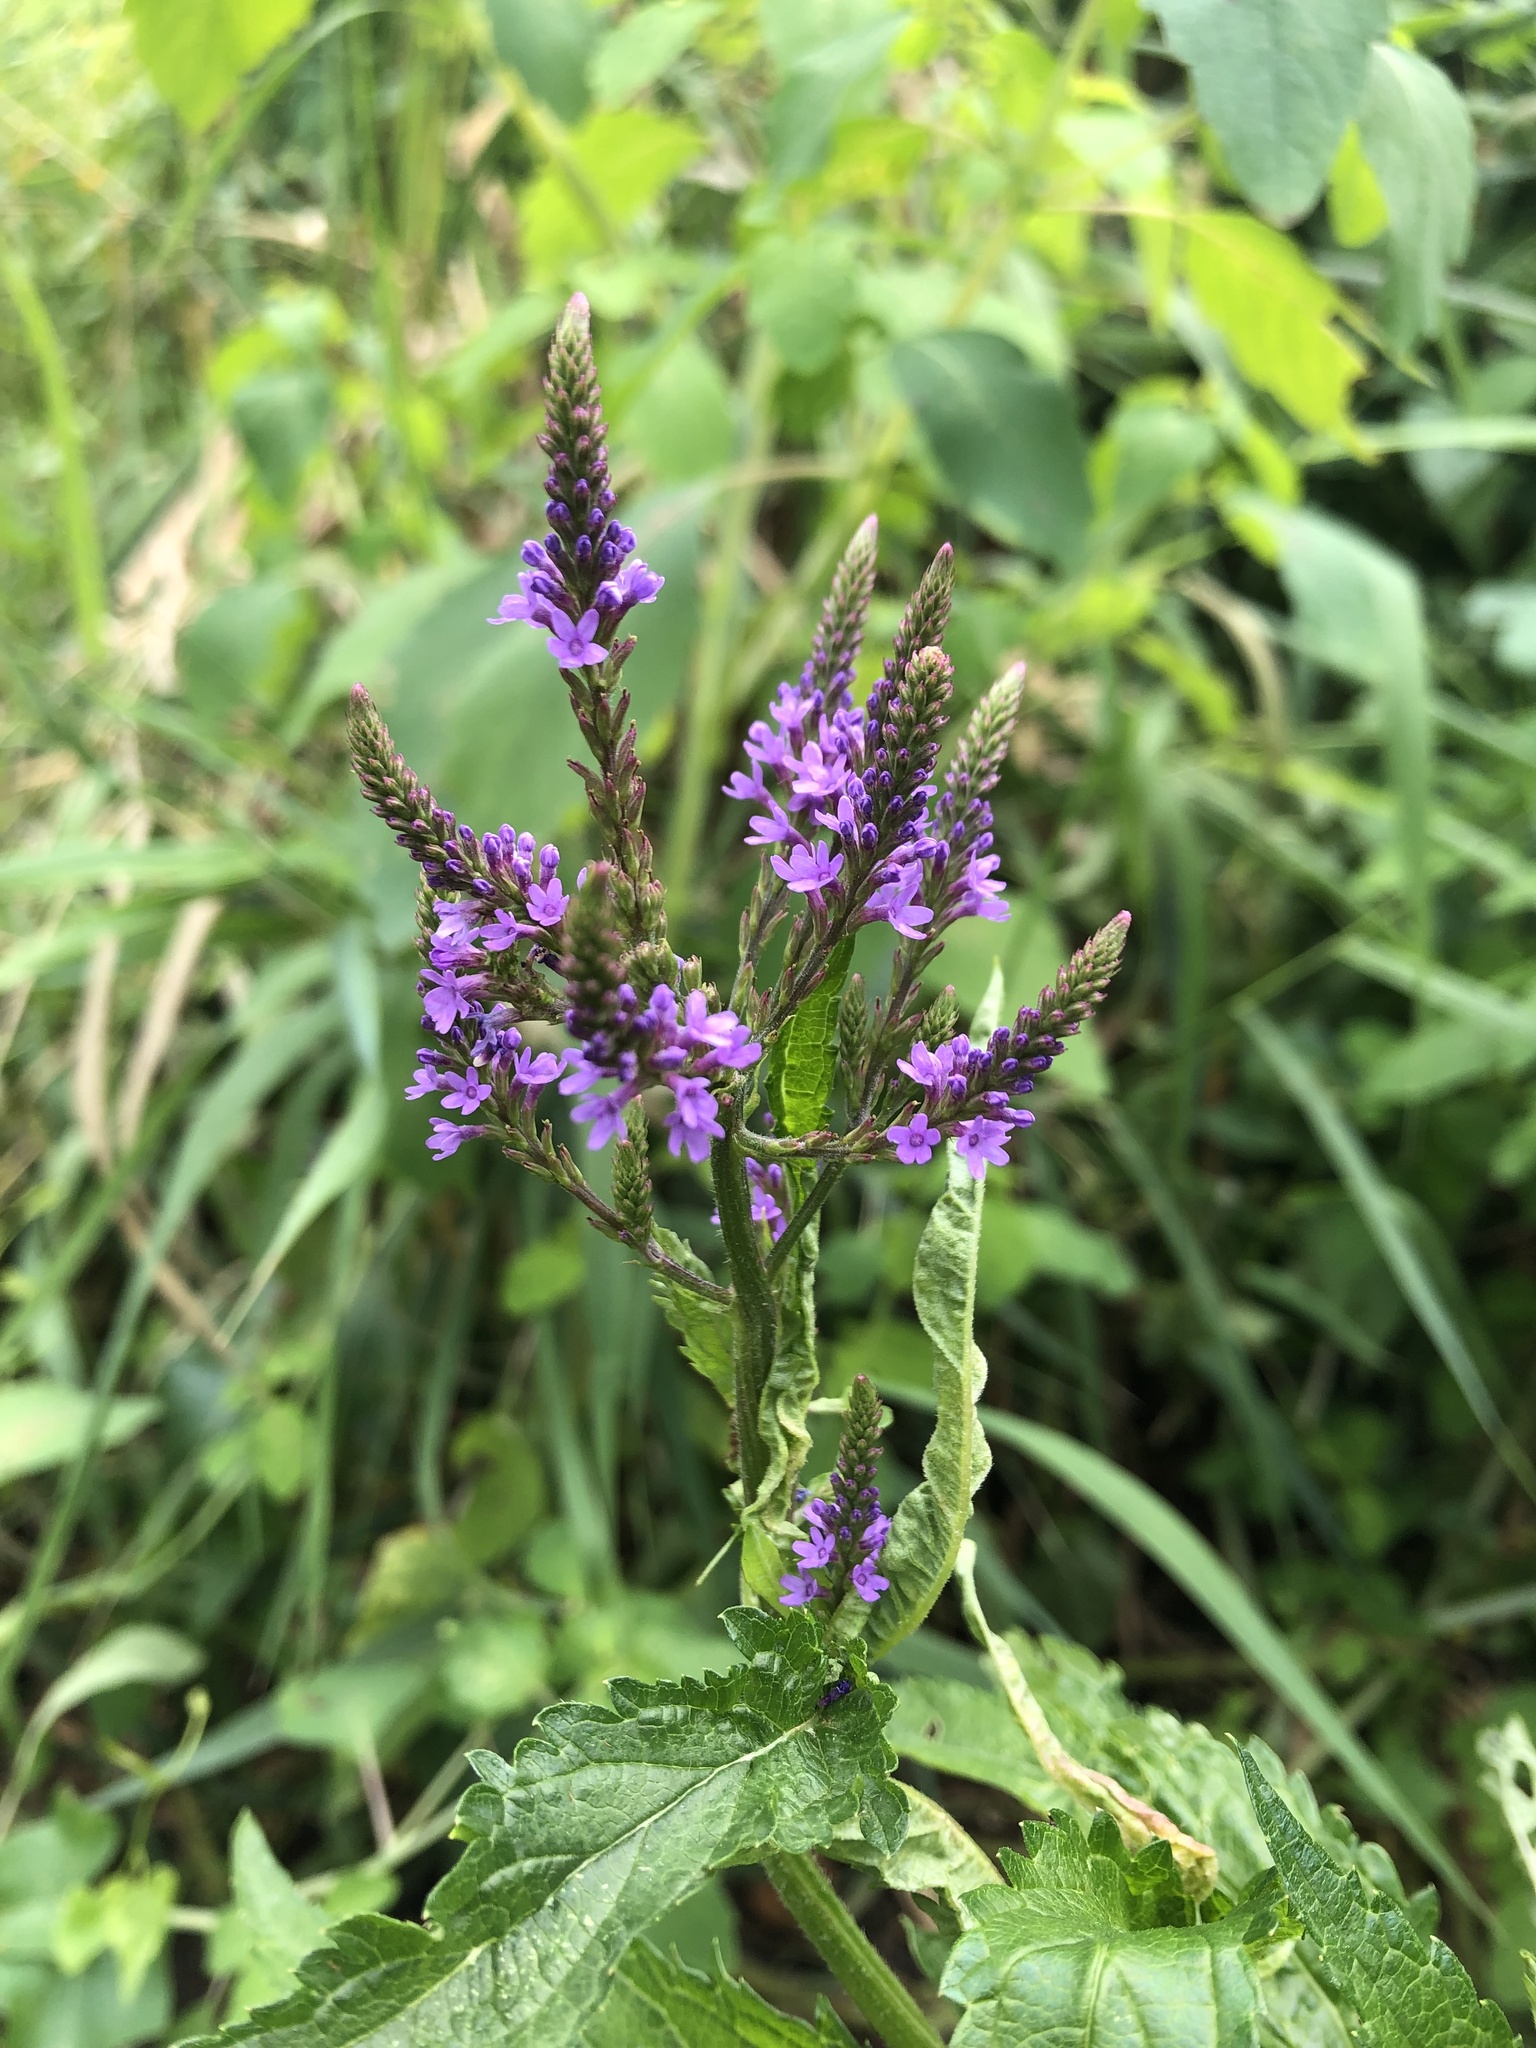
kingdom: Plantae
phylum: Tracheophyta
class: Magnoliopsida
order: Lamiales
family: Verbenaceae
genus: Verbena
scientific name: Verbena hastata
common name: American blue vervain
